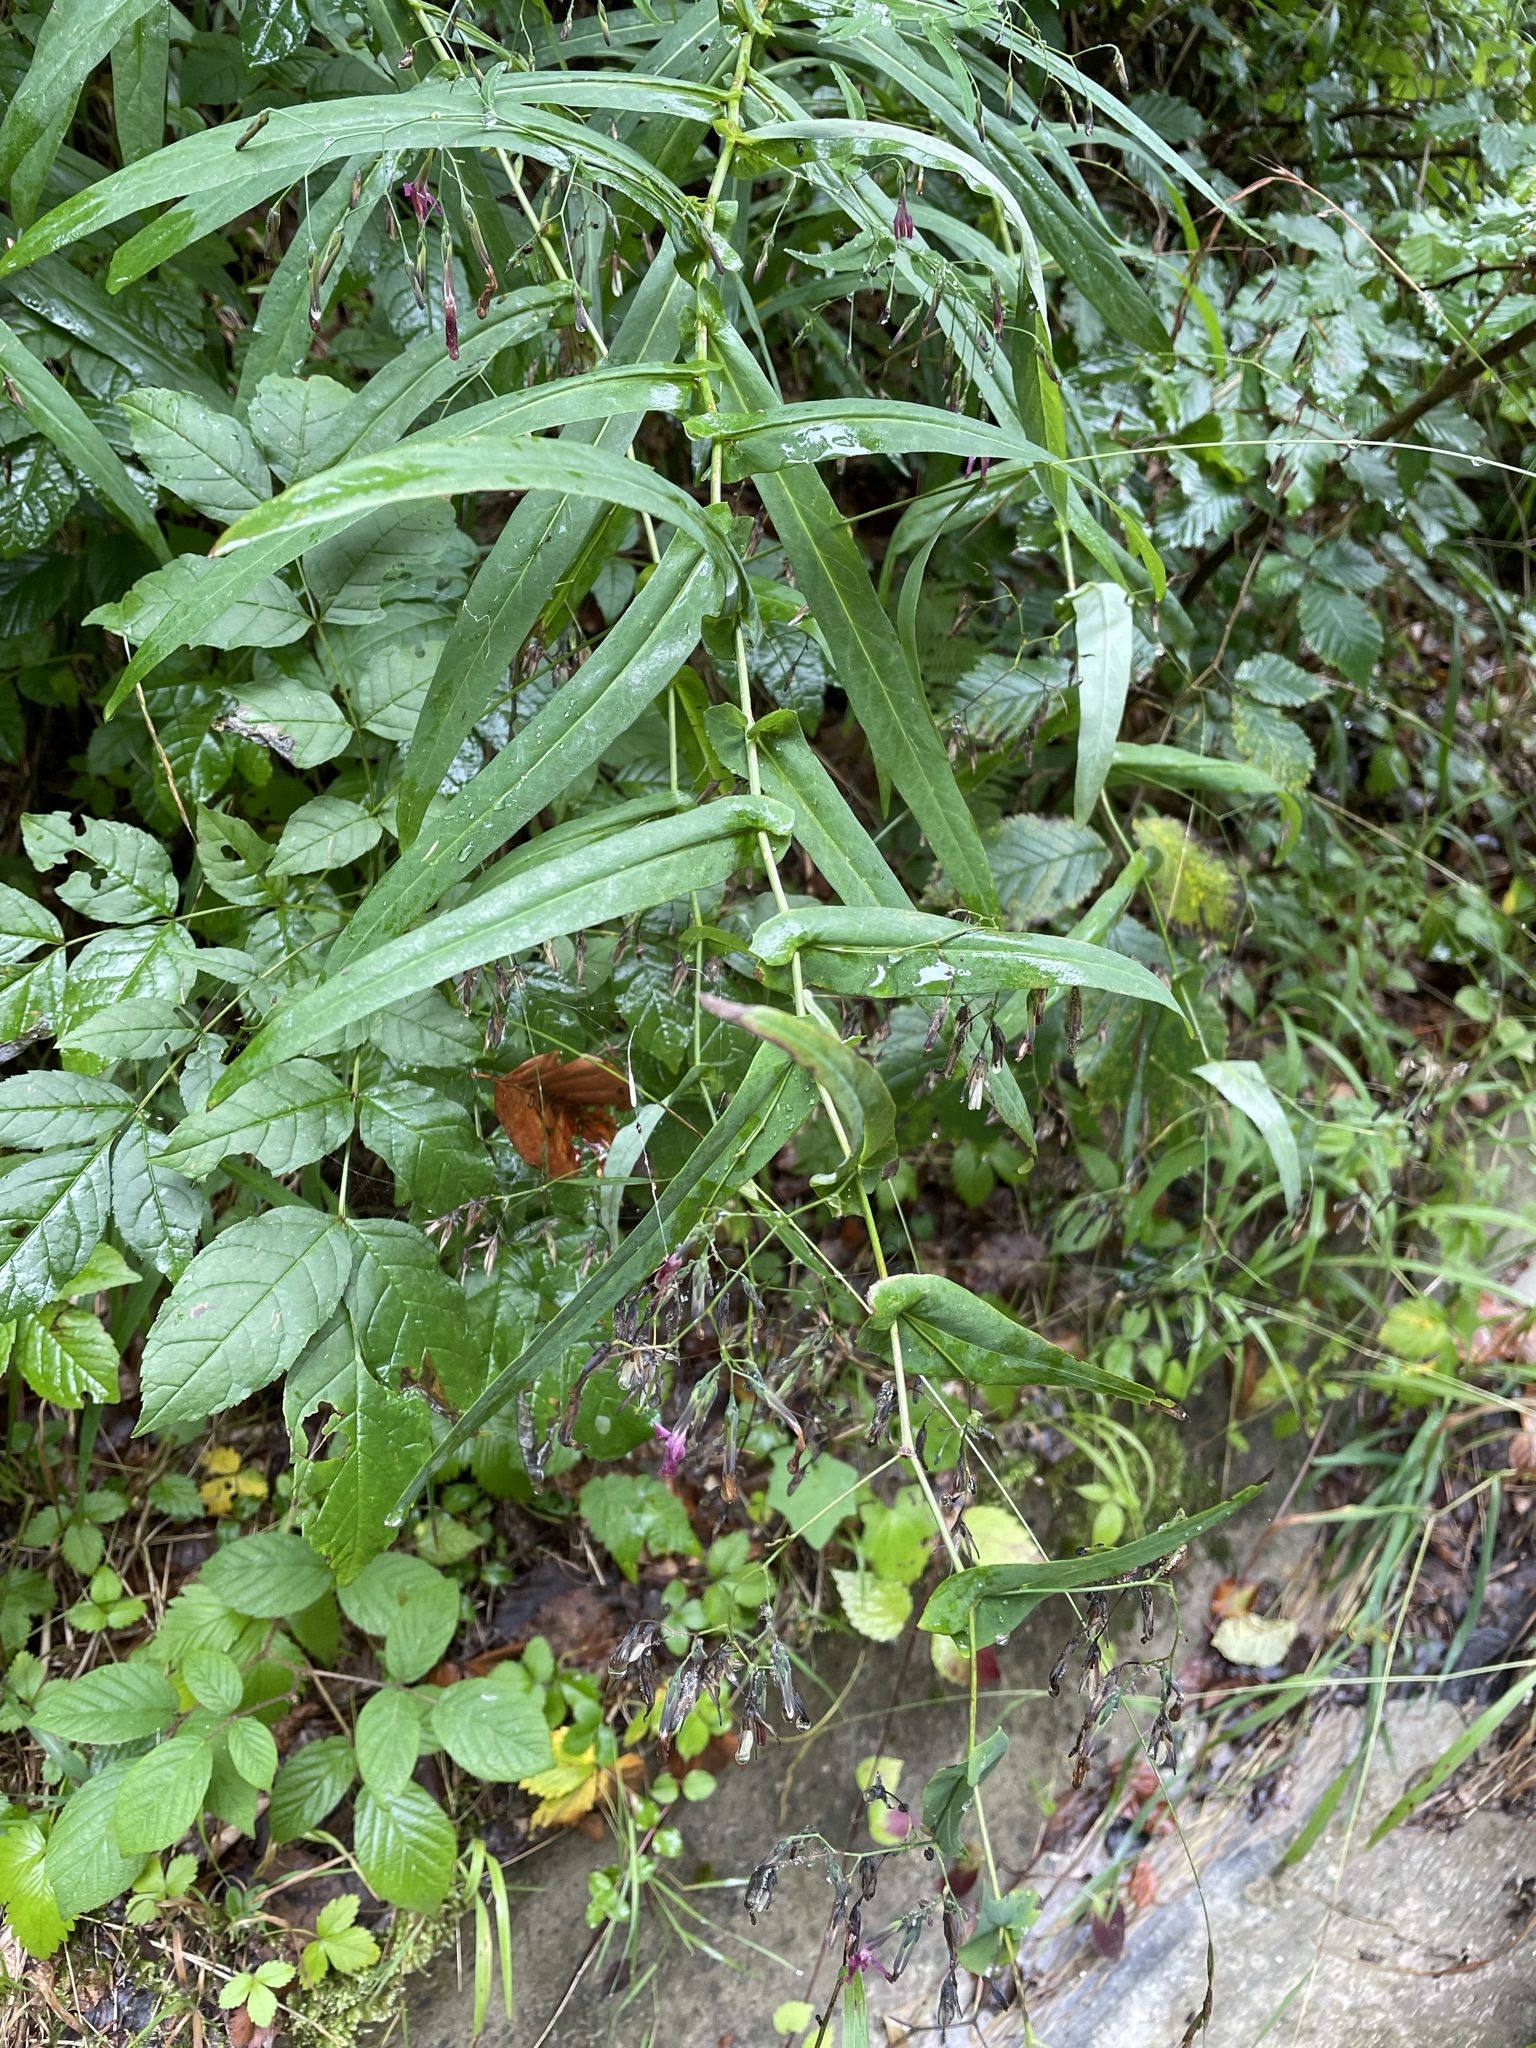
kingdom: Plantae
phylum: Tracheophyta
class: Magnoliopsida
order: Asterales
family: Asteraceae
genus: Prenanthes
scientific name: Prenanthes purpurea
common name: Purple lettuce
